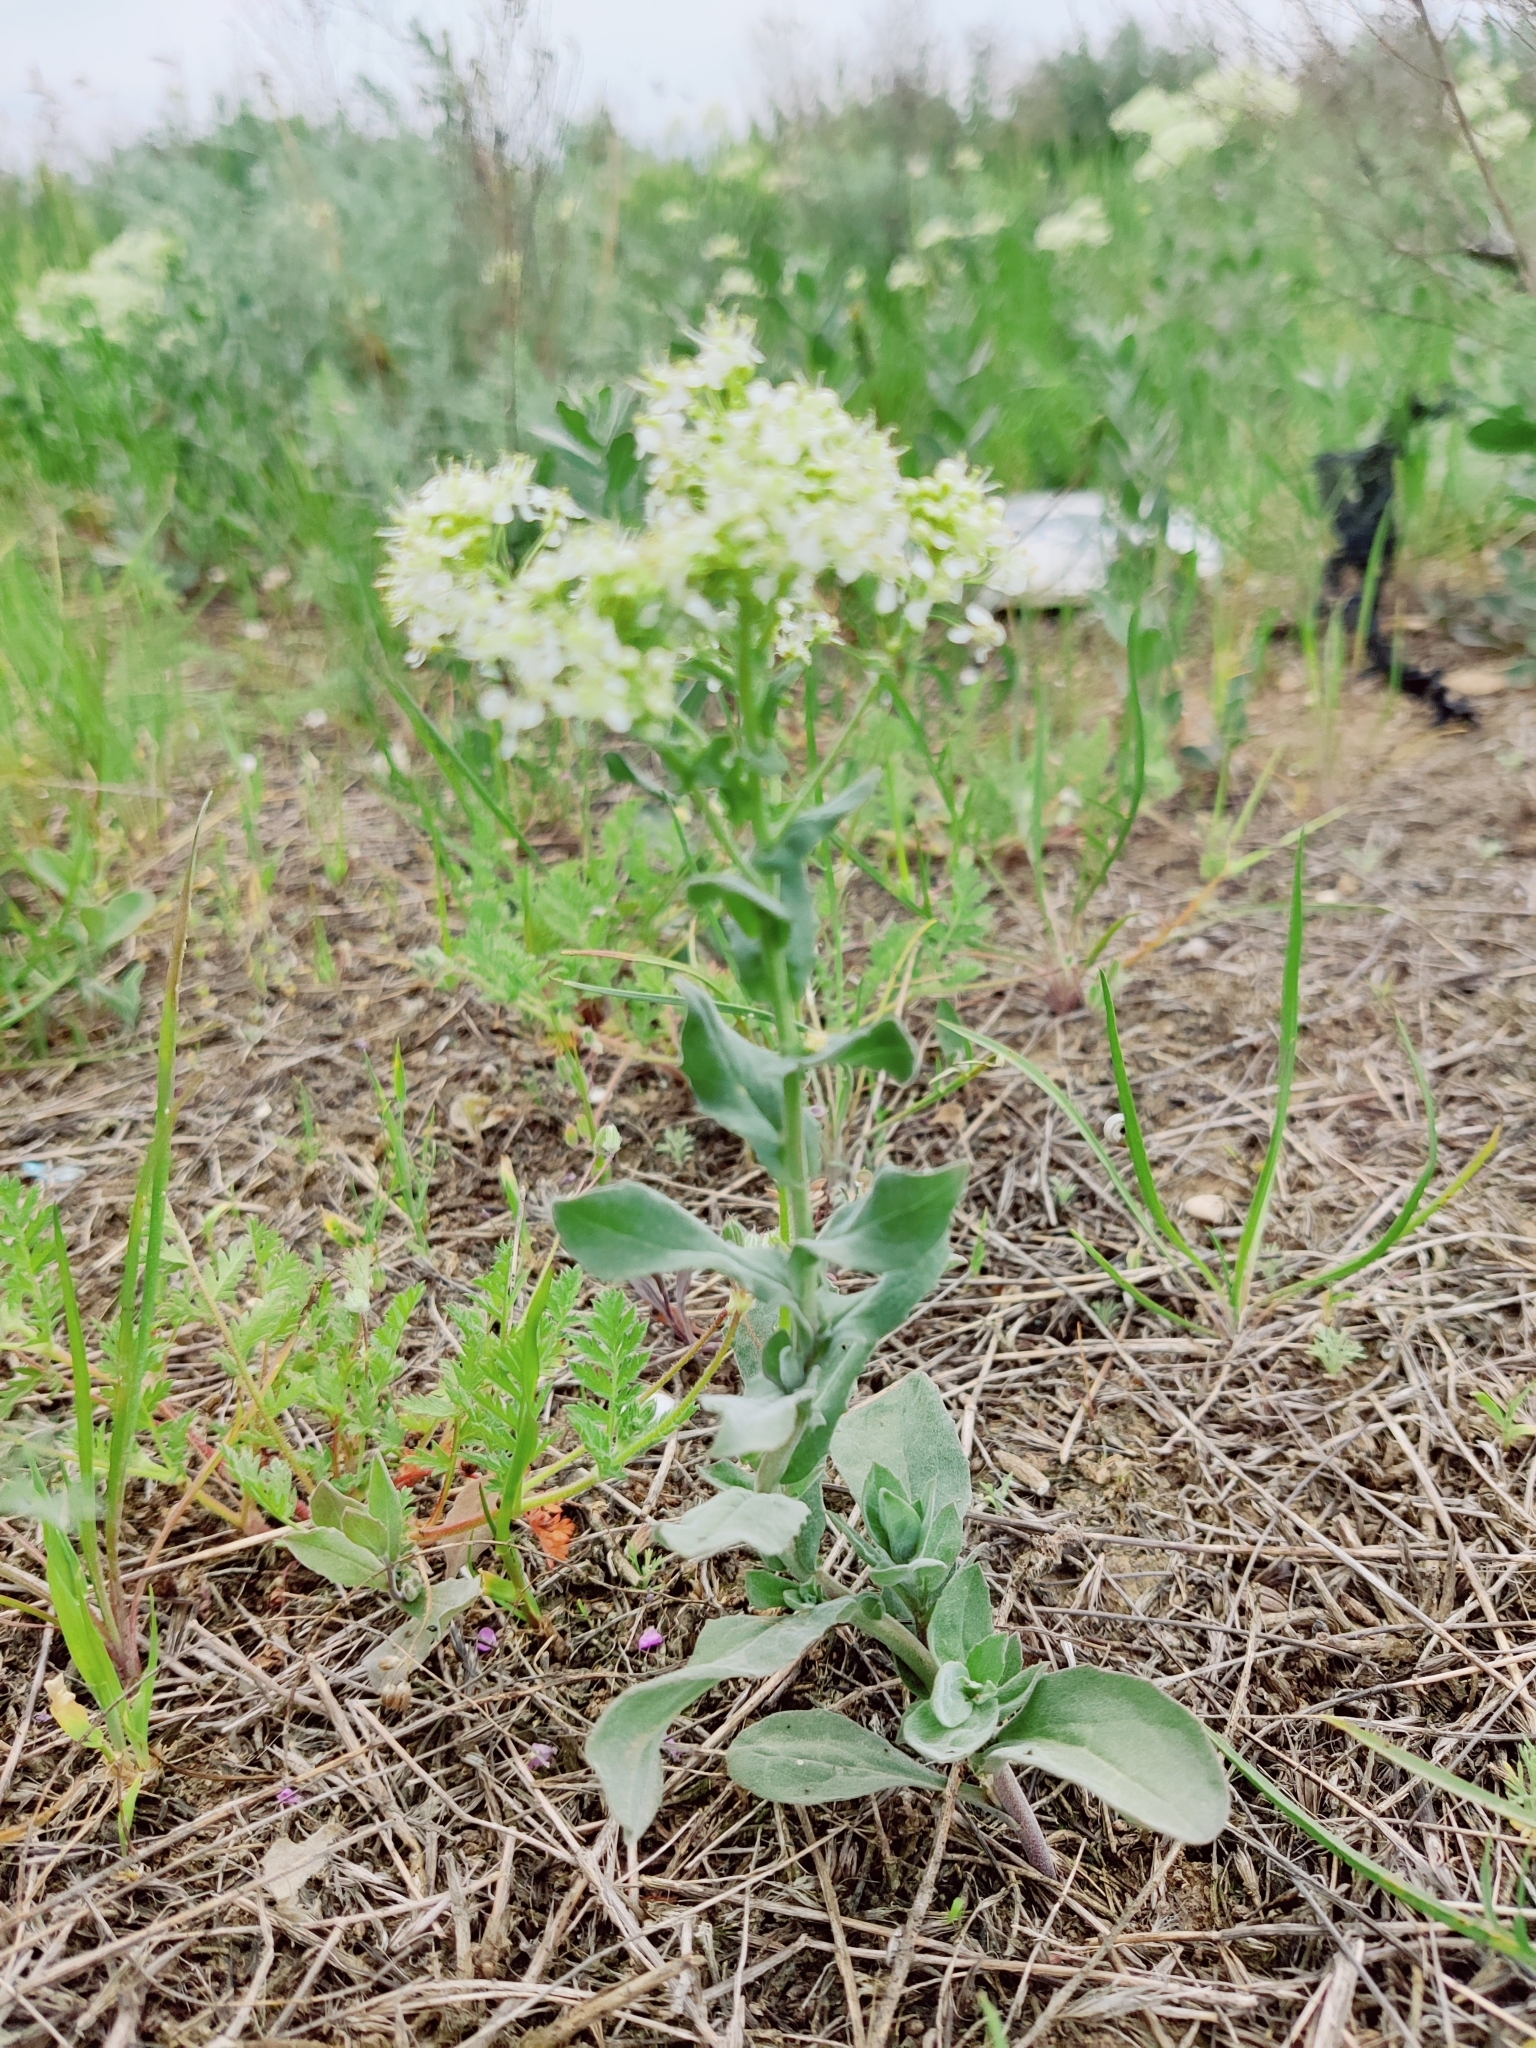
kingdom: Plantae
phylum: Tracheophyta
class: Magnoliopsida
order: Brassicales
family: Brassicaceae
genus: Lepidium
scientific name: Lepidium draba
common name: Hoary cress
